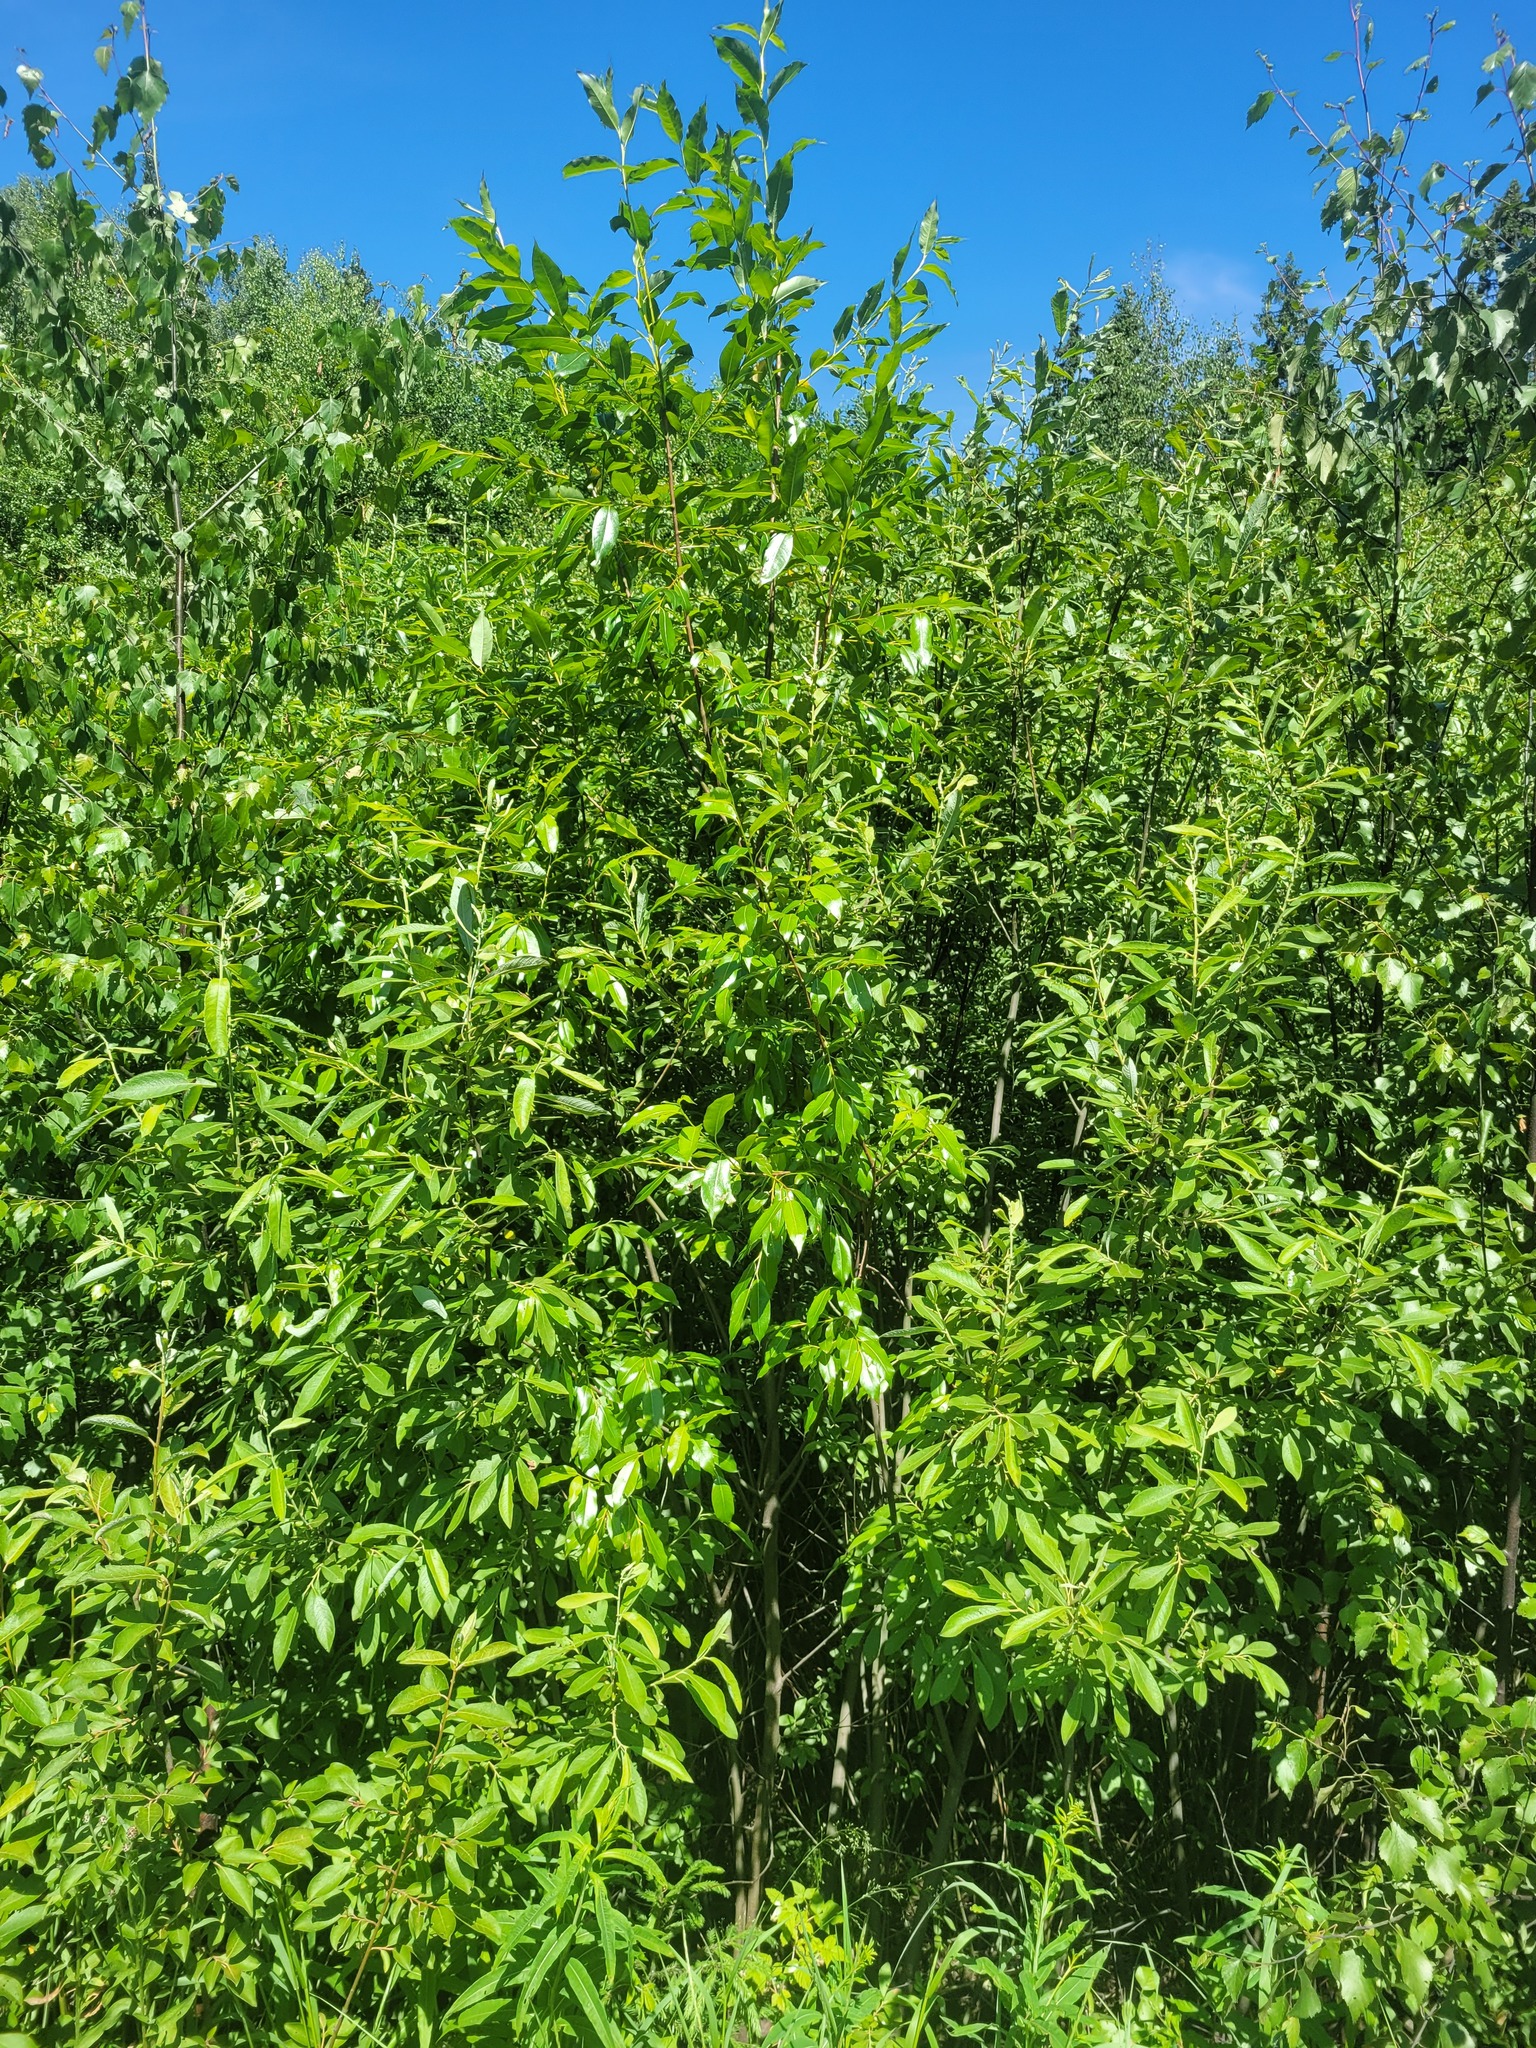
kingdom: Plantae
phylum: Tracheophyta
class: Magnoliopsida
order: Malpighiales
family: Salicaceae
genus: Salix
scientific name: Salix pentandra
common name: Bay willow
